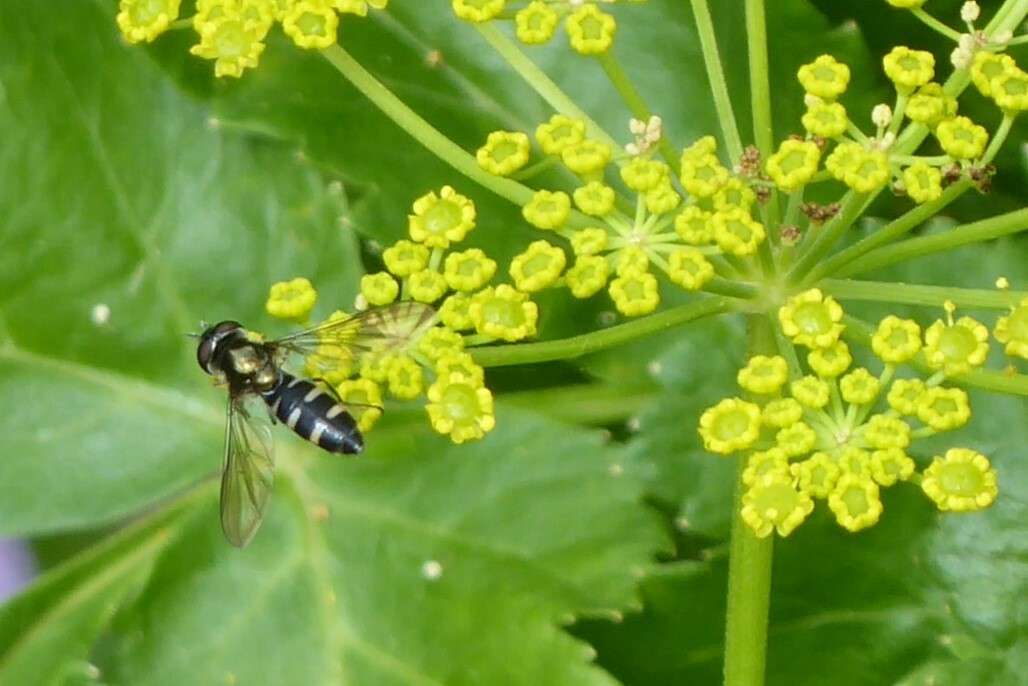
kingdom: Animalia
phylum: Arthropoda
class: Insecta
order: Diptera
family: Syrphidae
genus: Melangyna
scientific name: Melangyna novaezelandiae
